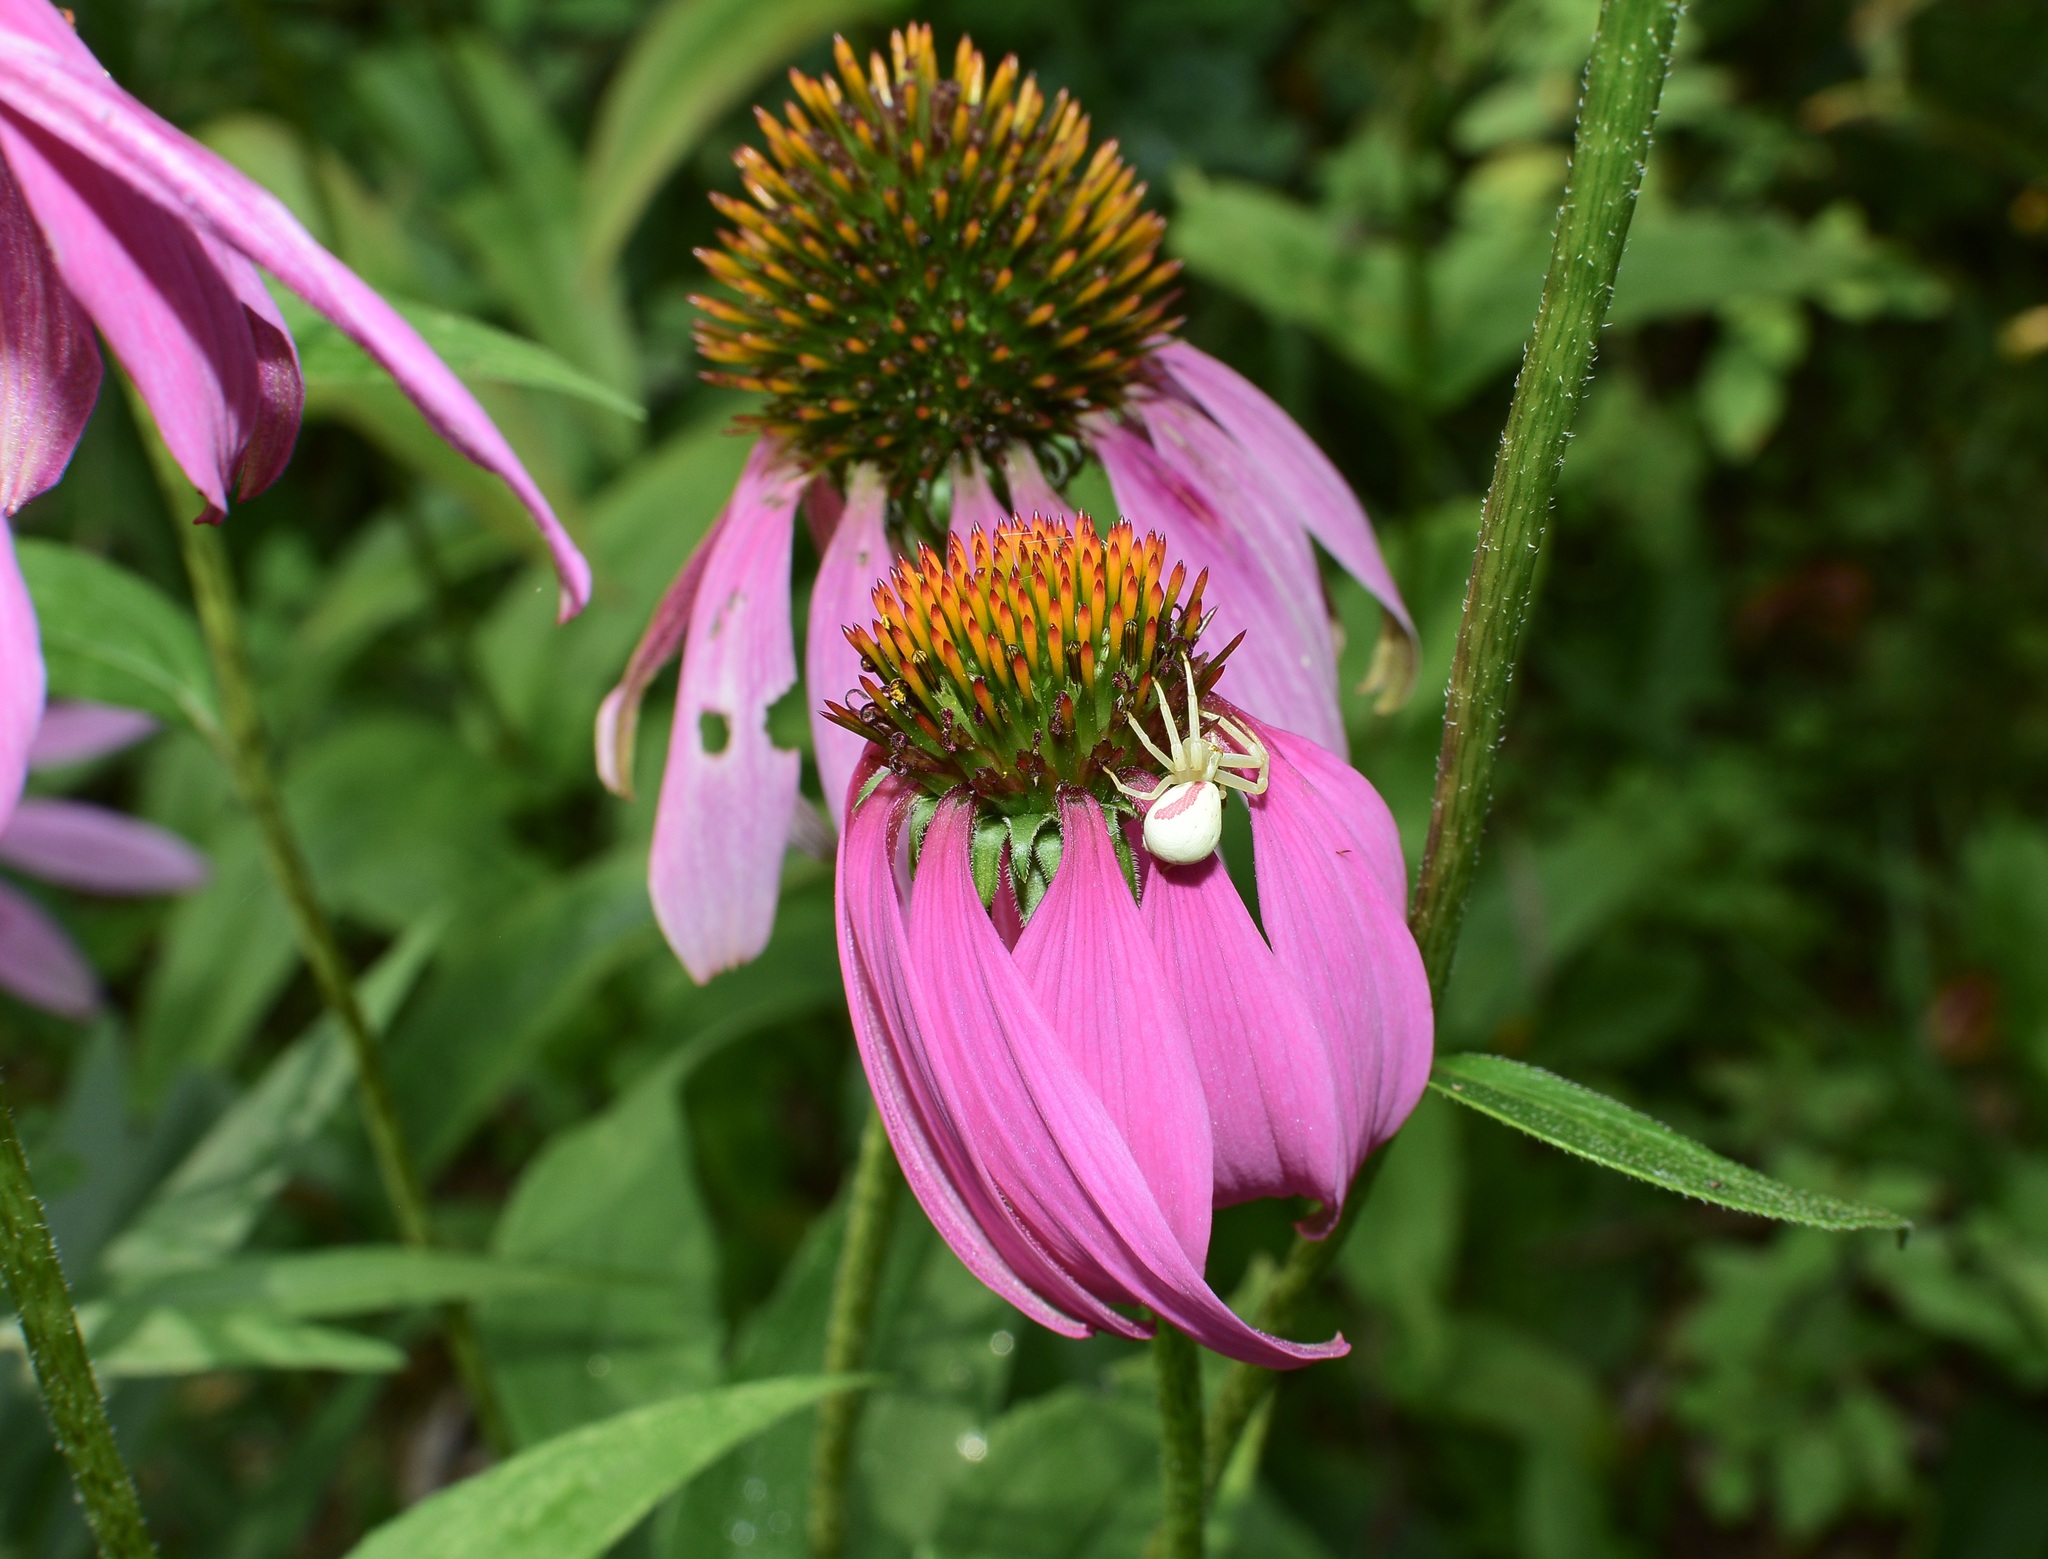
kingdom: Animalia
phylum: Arthropoda
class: Arachnida
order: Araneae
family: Thomisidae
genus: Misumena
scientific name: Misumena vatia
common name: Goldenrod crab spider
